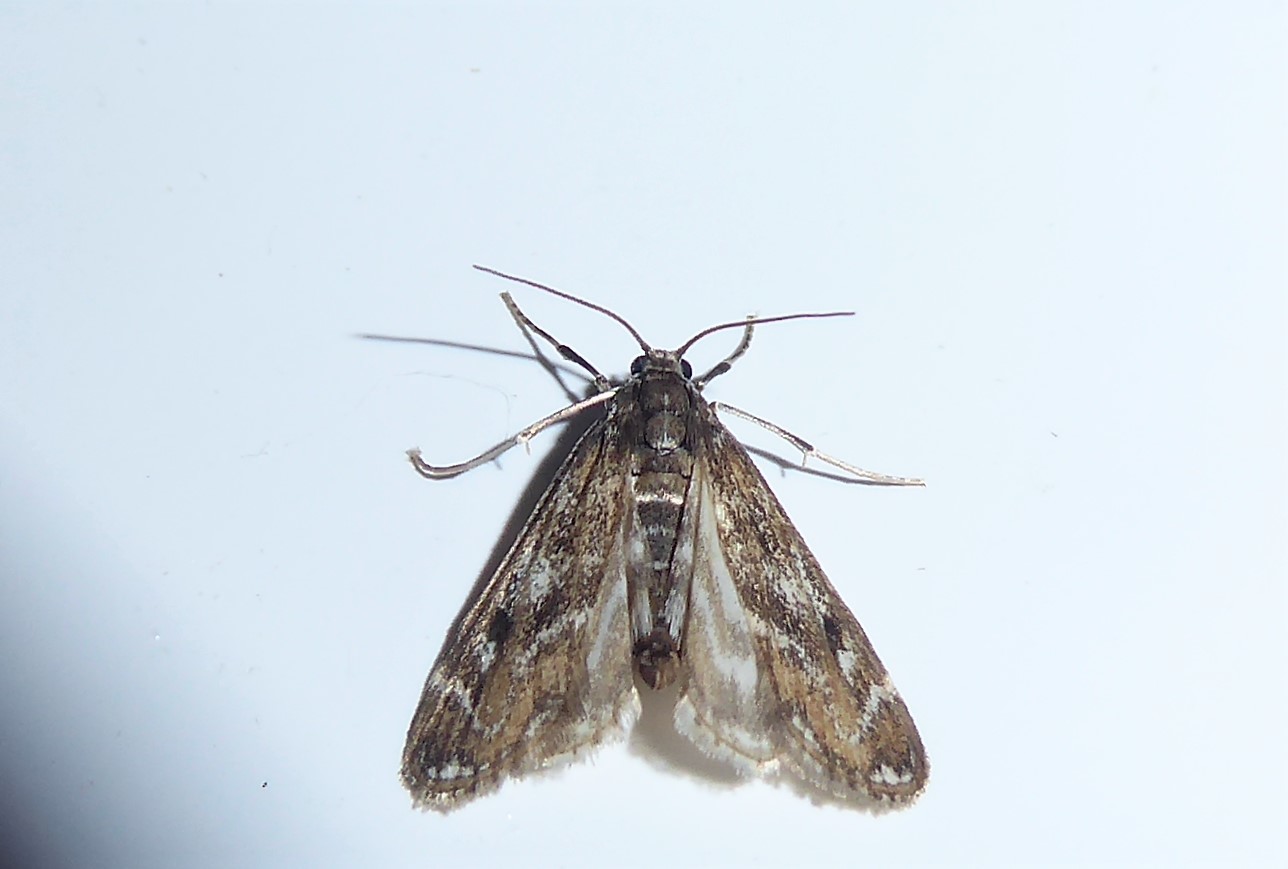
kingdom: Animalia
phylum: Arthropoda
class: Insecta
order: Lepidoptera
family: Crambidae
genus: Hygraula
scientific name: Hygraula nitens
